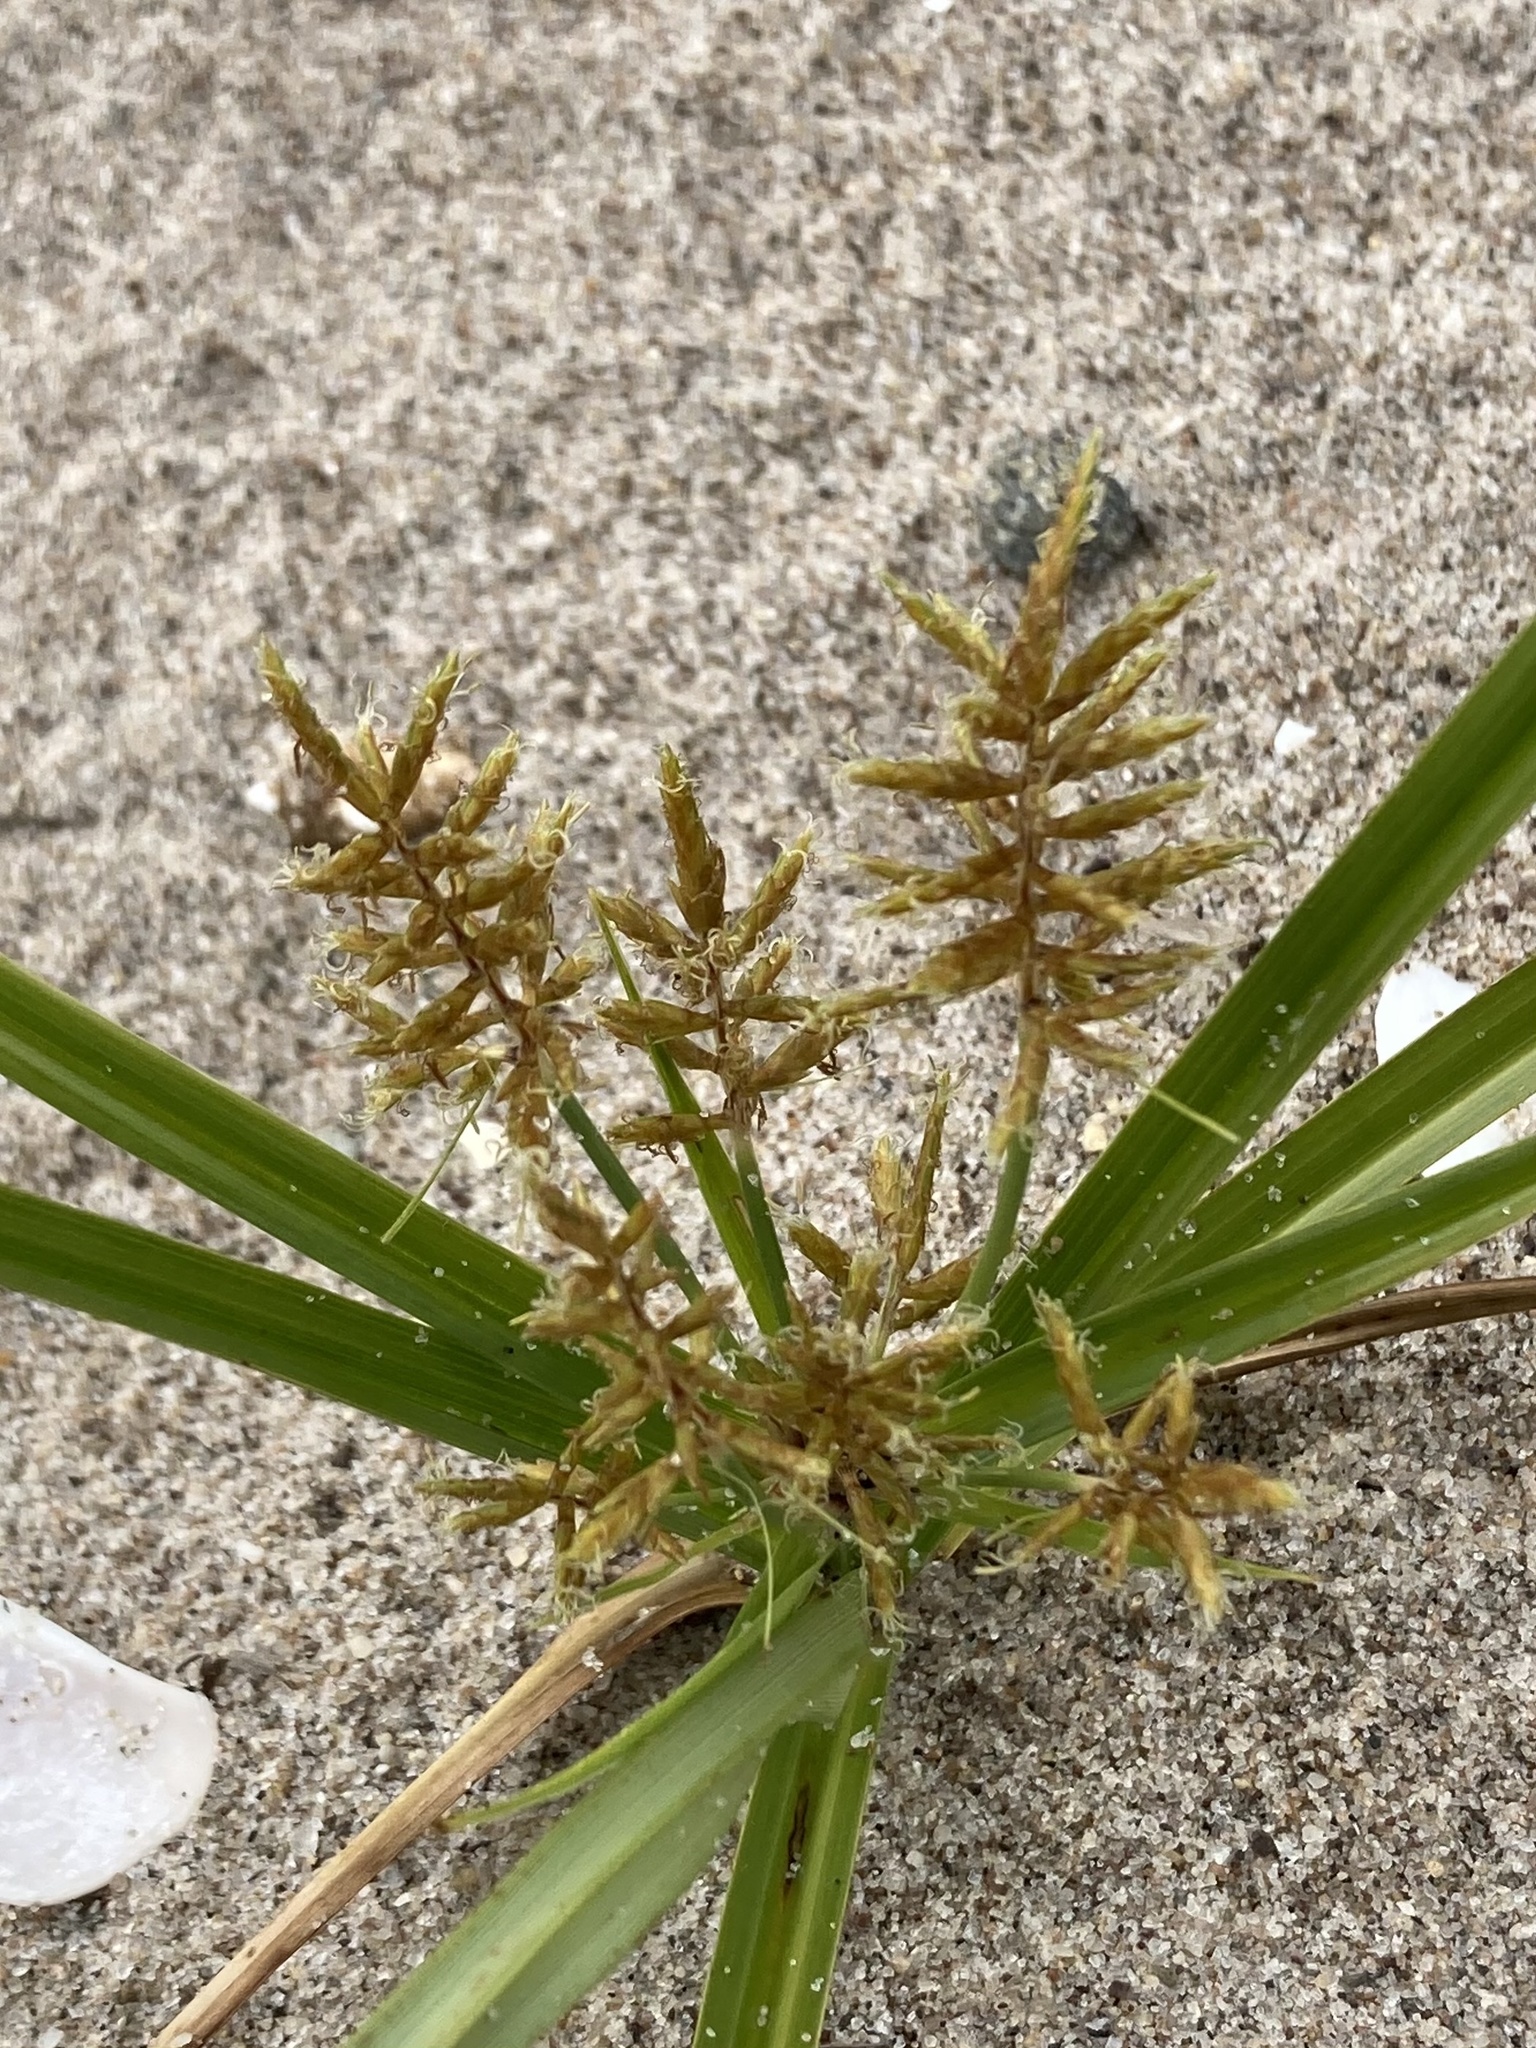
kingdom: Plantae
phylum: Tracheophyta
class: Liliopsida
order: Poales
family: Cyperaceae
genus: Cyperus
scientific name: Cyperus esculentus
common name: Yellow nutsedge
